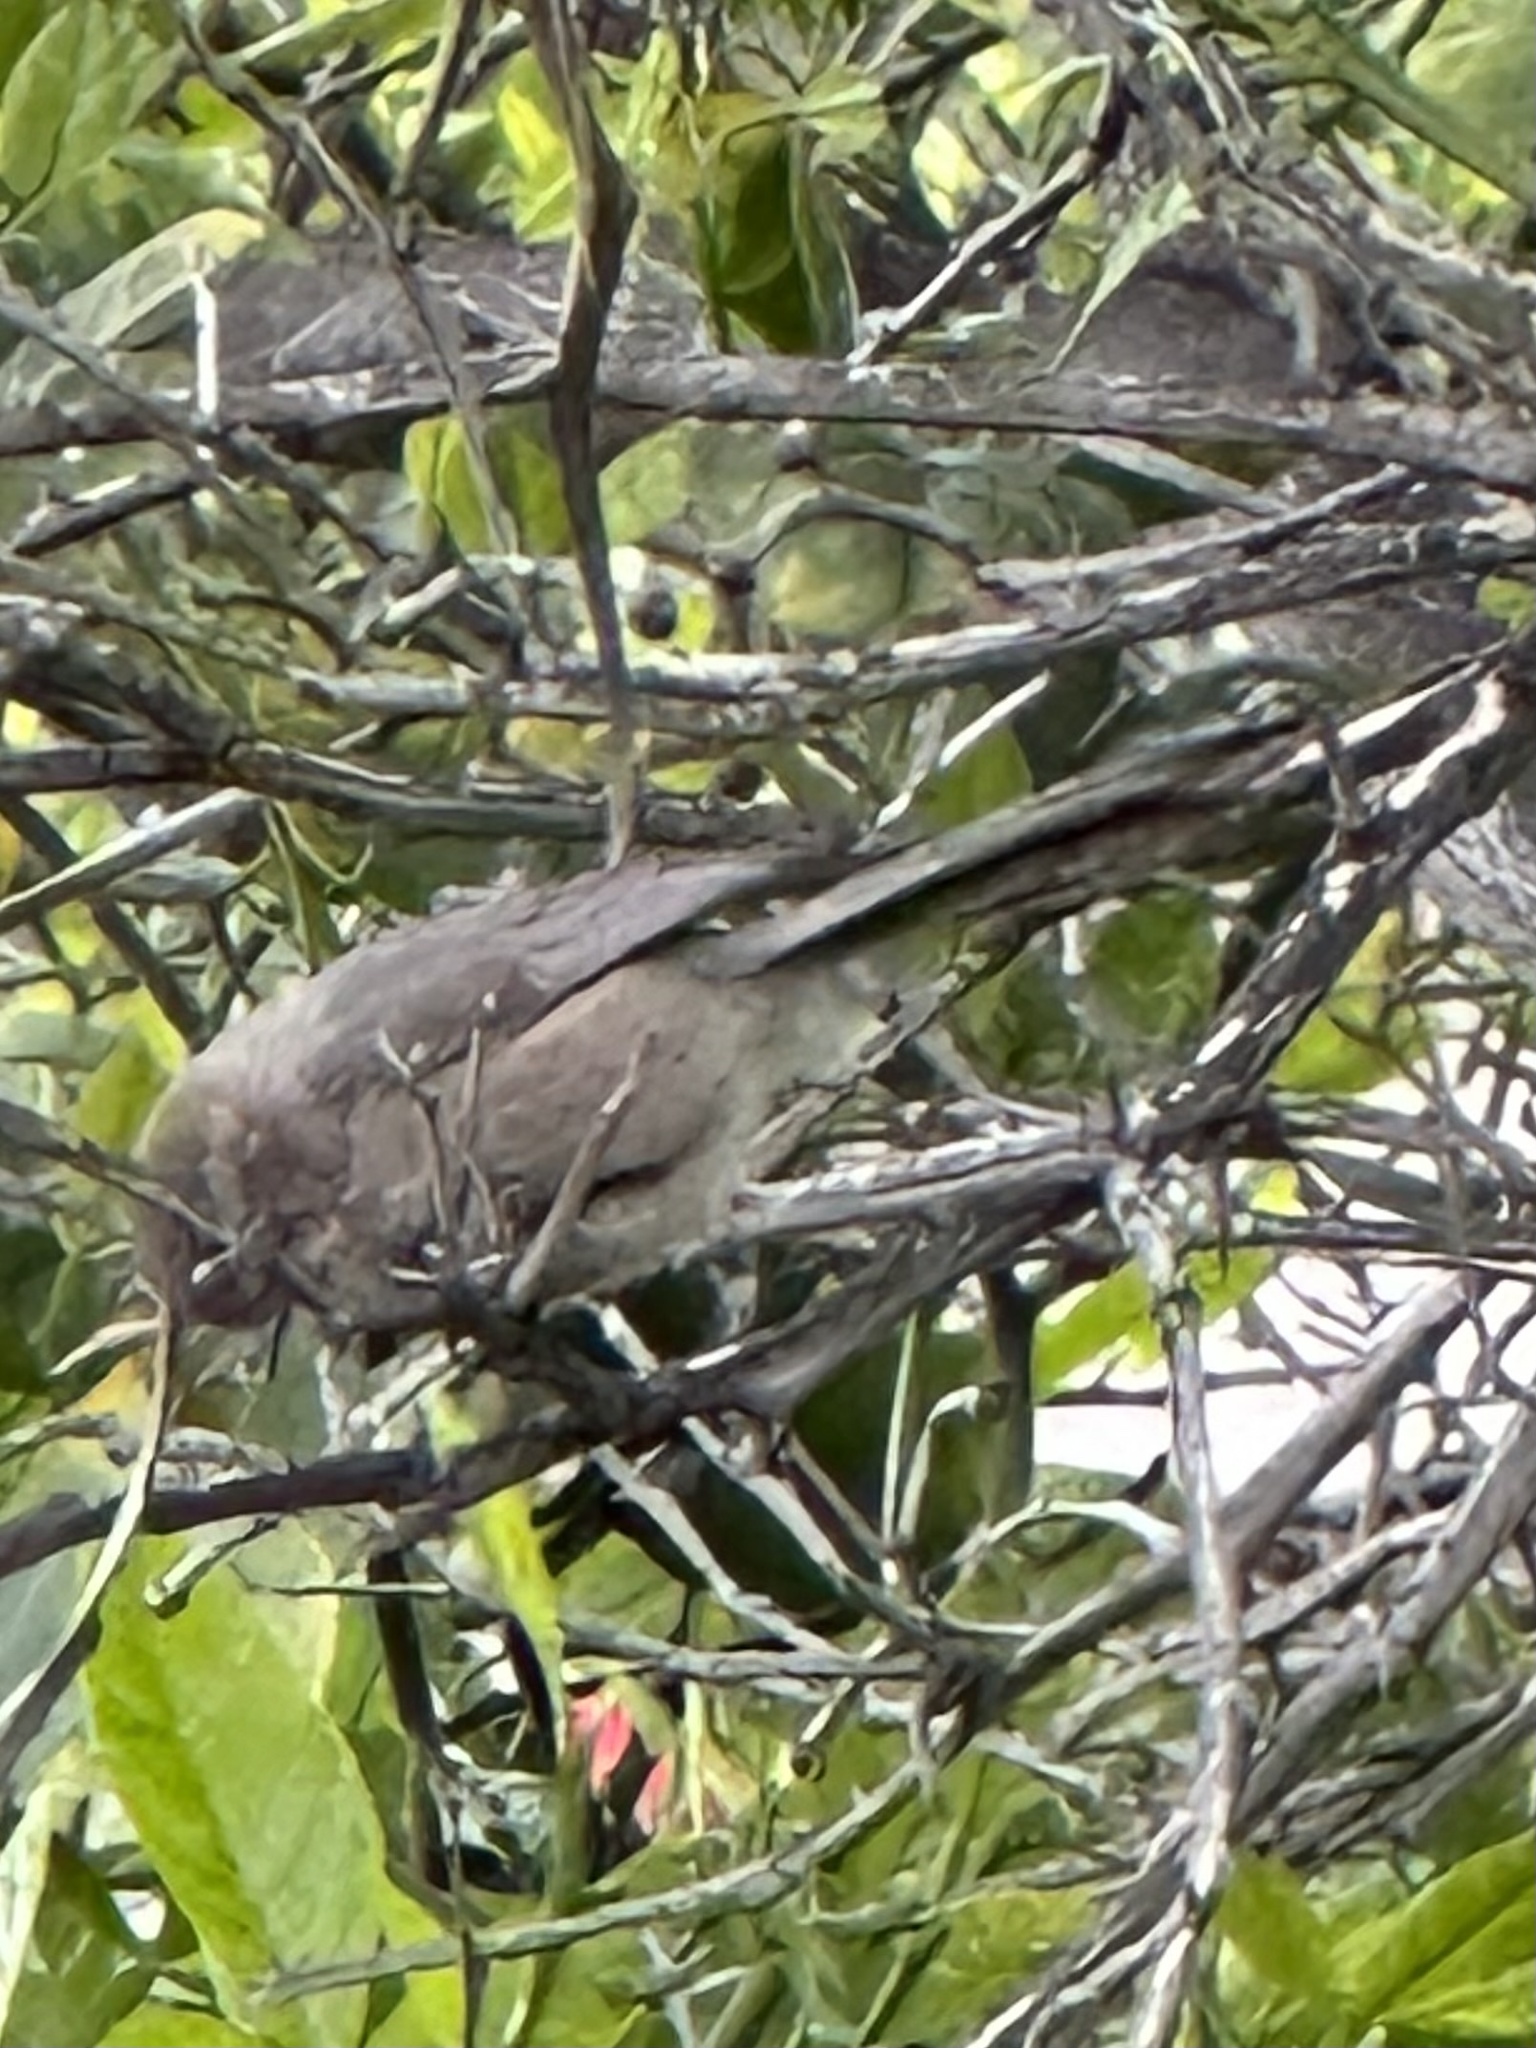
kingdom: Animalia
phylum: Chordata
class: Aves
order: Passeriformes
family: Aegithalidae
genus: Psaltriparus
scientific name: Psaltriparus minimus
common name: American bushtit
